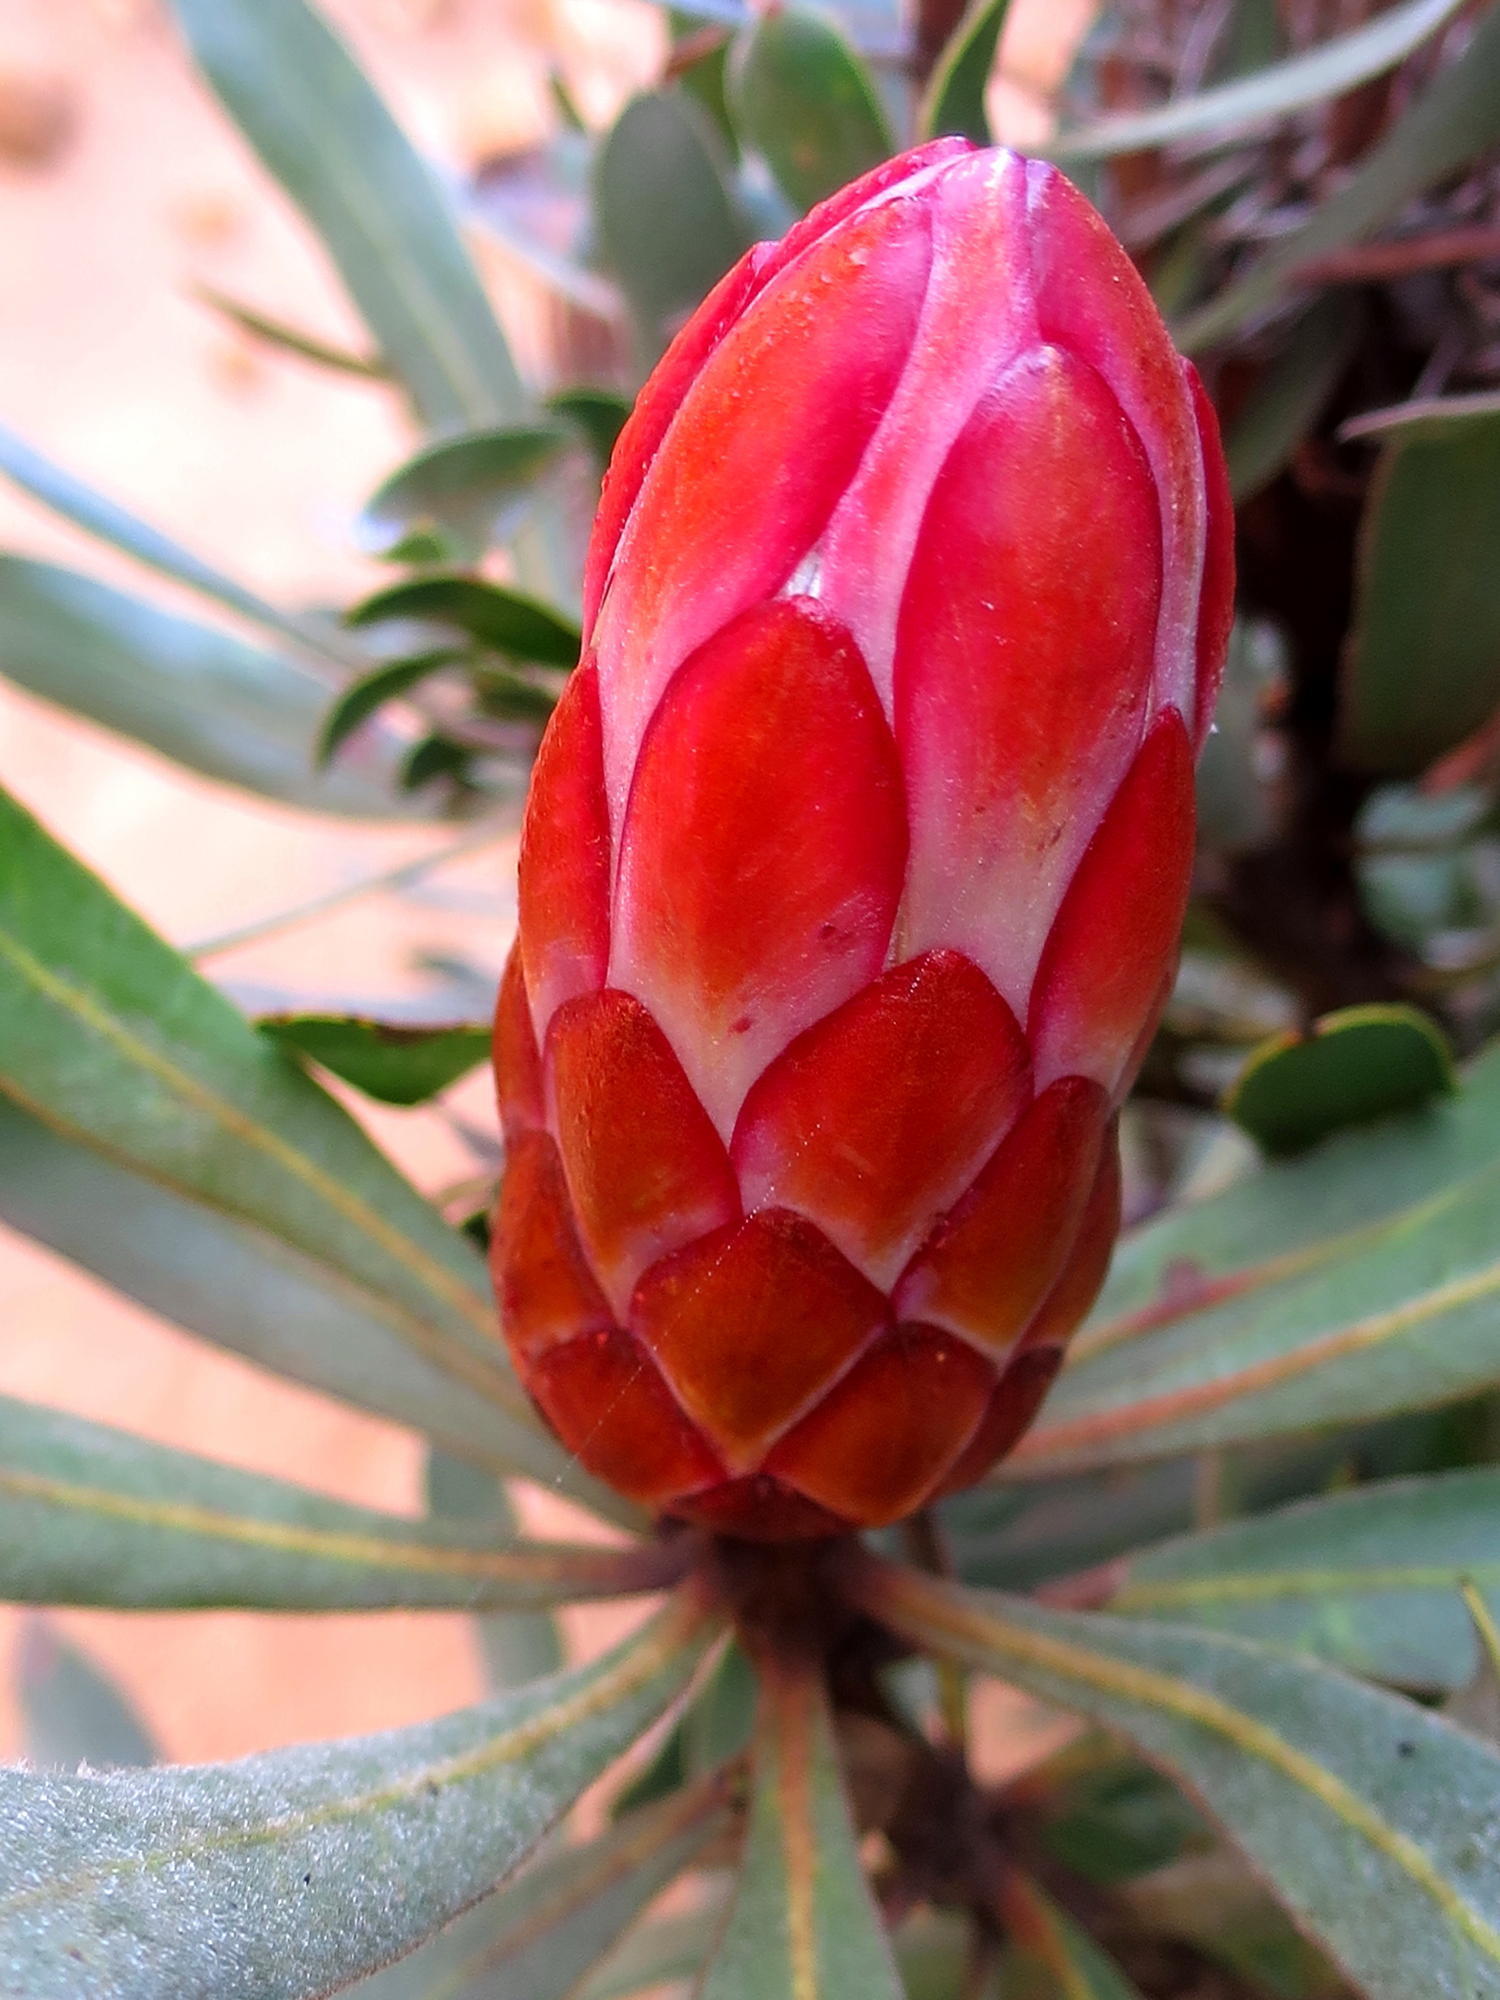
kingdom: Plantae
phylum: Tracheophyta
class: Magnoliopsida
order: Proteales
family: Proteaceae
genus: Protea
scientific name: Protea susannae
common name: Foetid-leaf sugarbush
